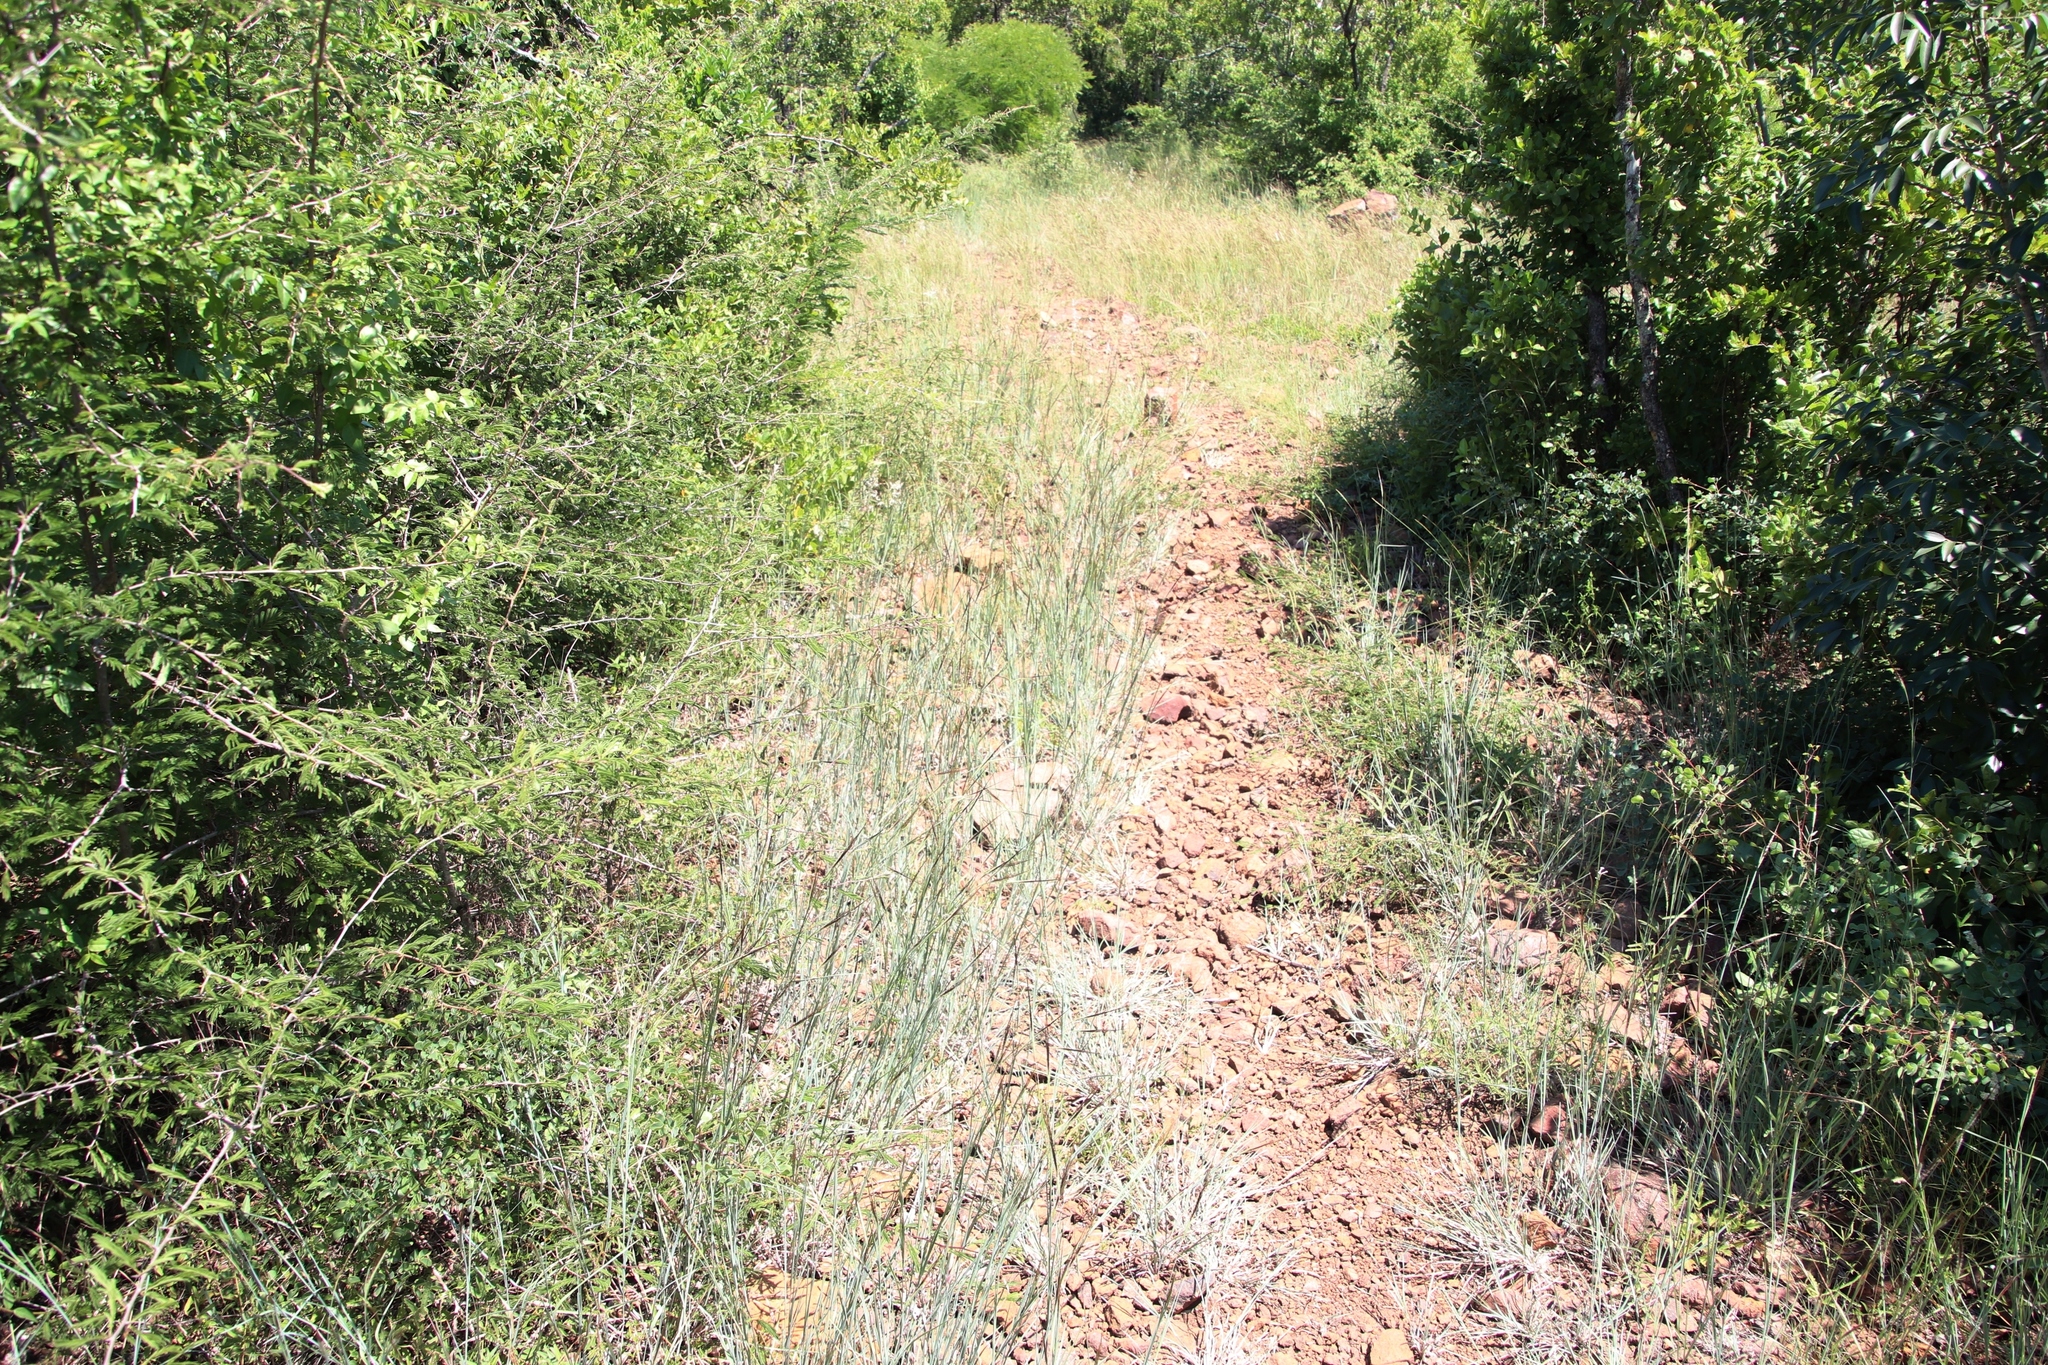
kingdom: Plantae
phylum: Tracheophyta
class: Liliopsida
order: Poales
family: Poaceae
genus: Heteropogon
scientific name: Heteropogon contortus
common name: Tanglehead
